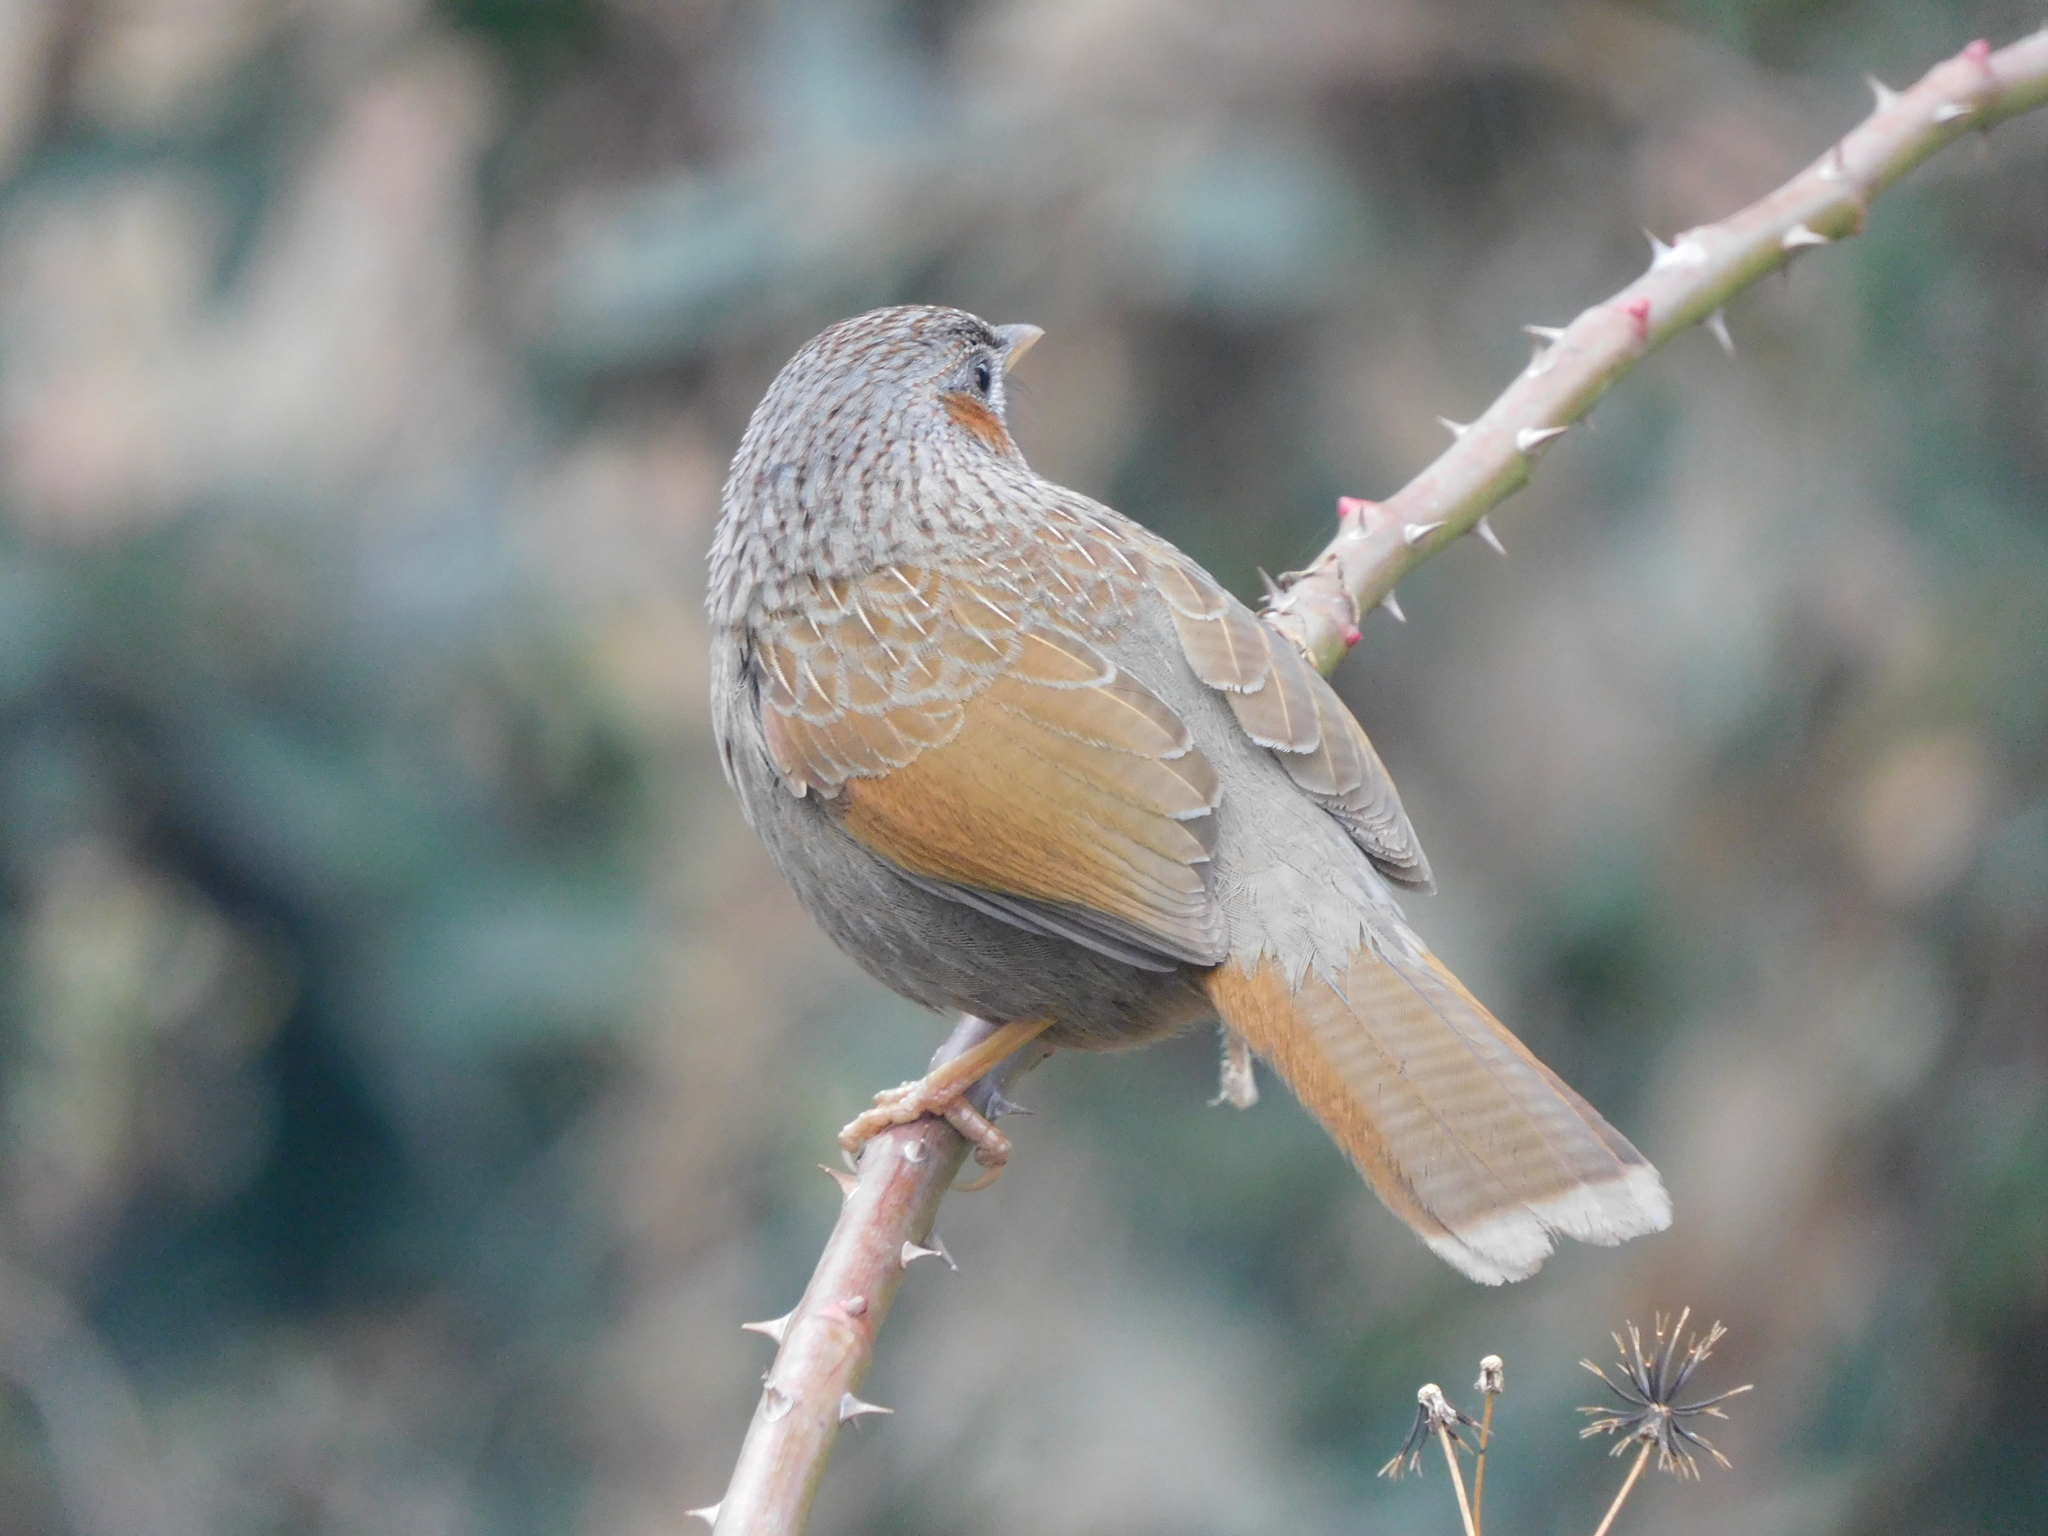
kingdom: Animalia
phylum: Chordata
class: Aves
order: Passeriformes
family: Leiothrichidae
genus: Trochalopteron
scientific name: Trochalopteron lineatum
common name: Streaked laughingthrush
